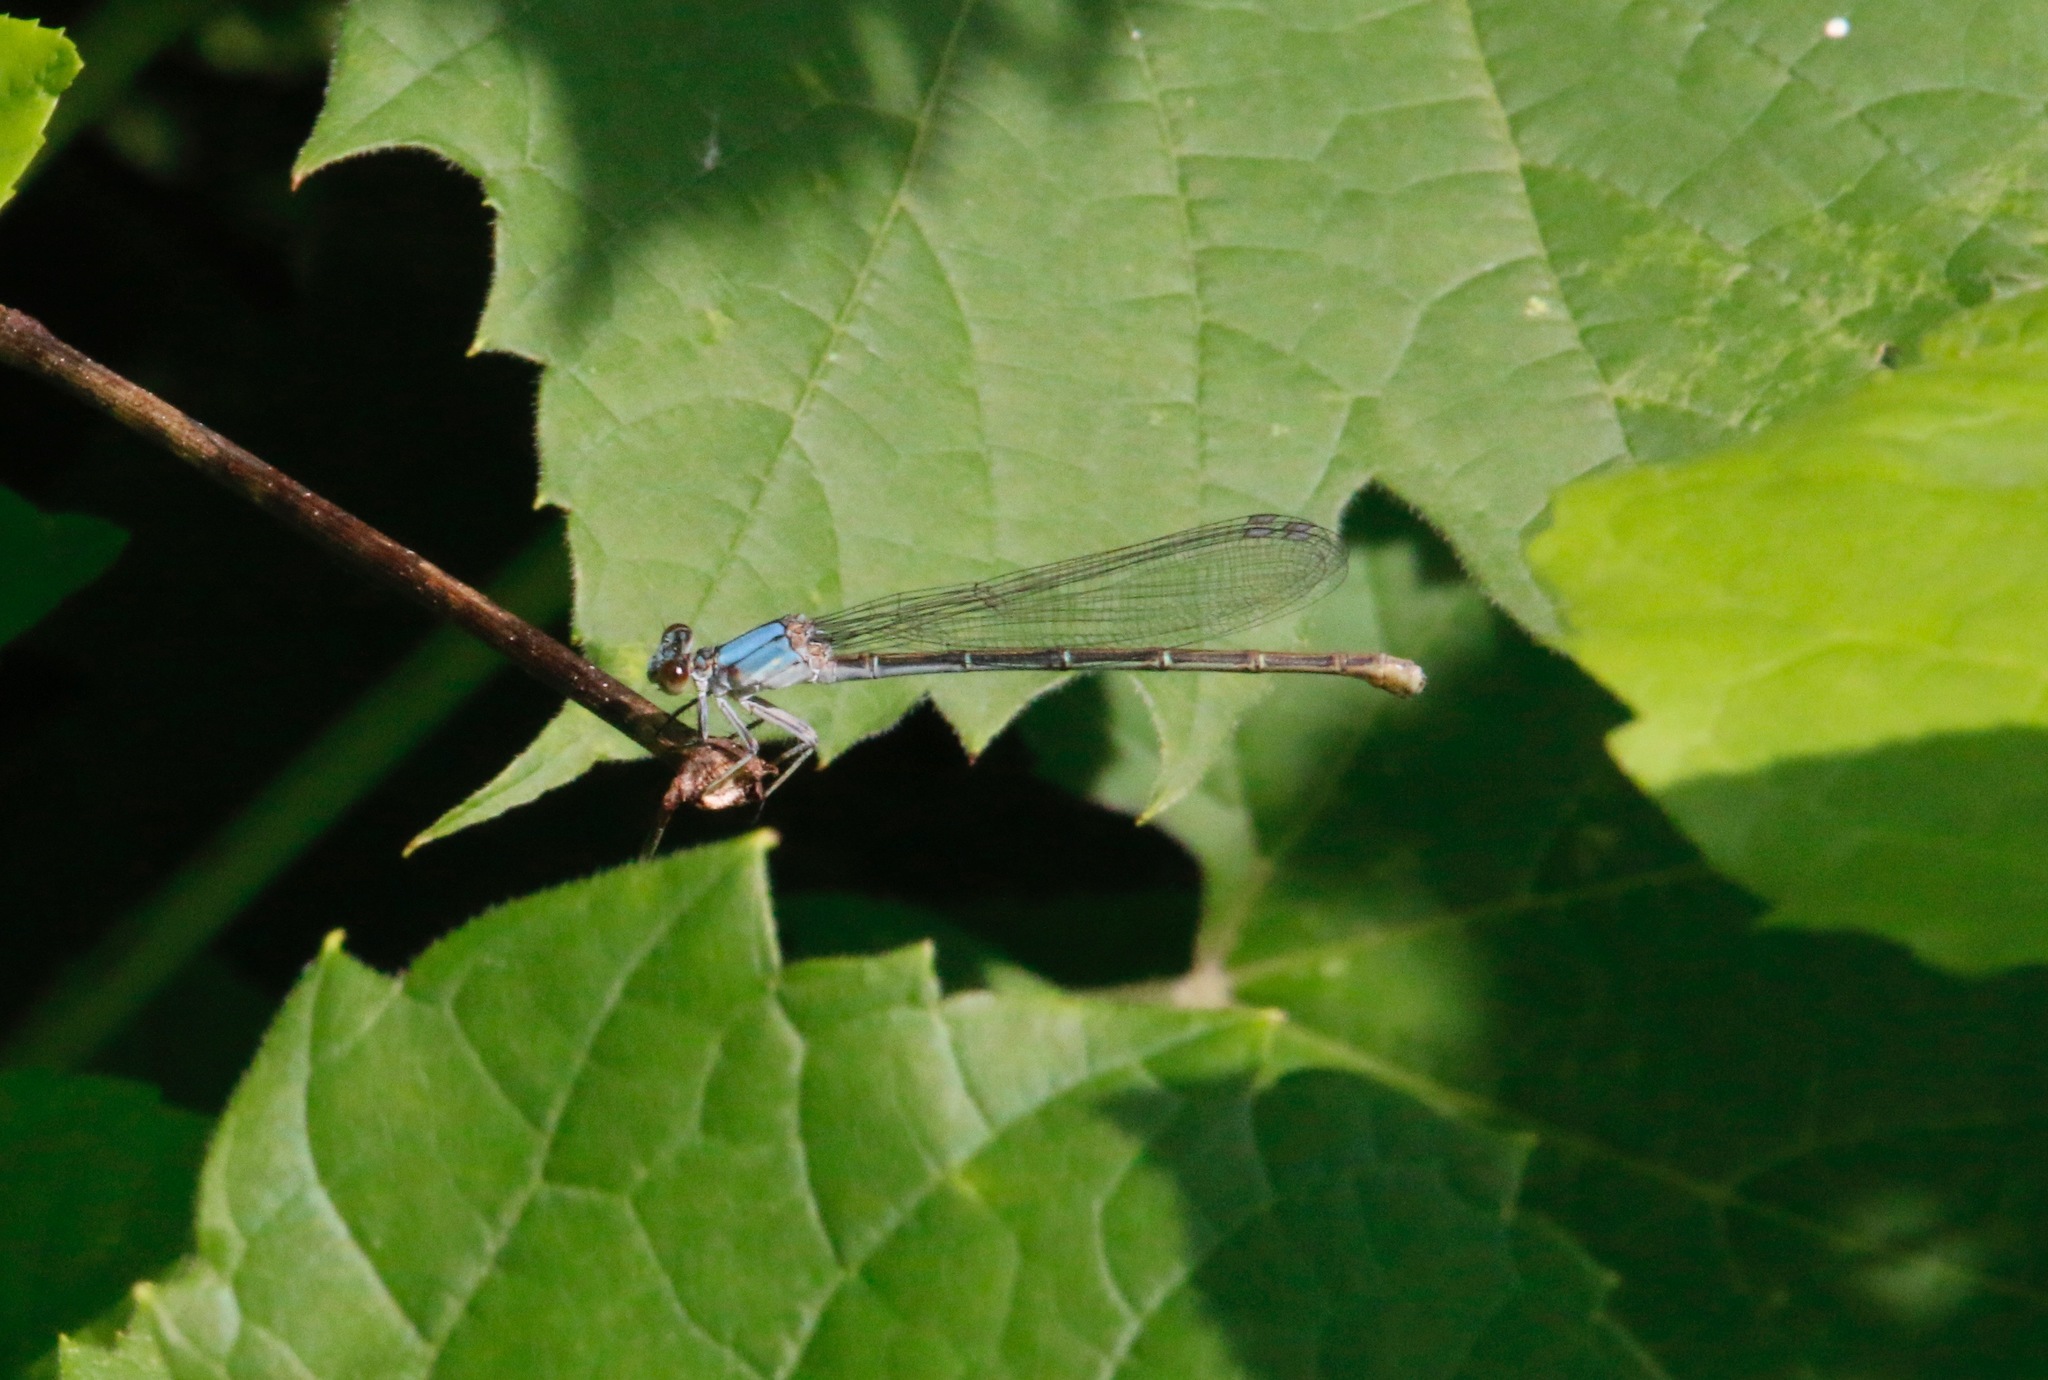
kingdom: Animalia
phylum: Arthropoda
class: Insecta
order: Odonata
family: Coenagrionidae
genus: Argia
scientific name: Argia moesta
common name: Powdered dancer
